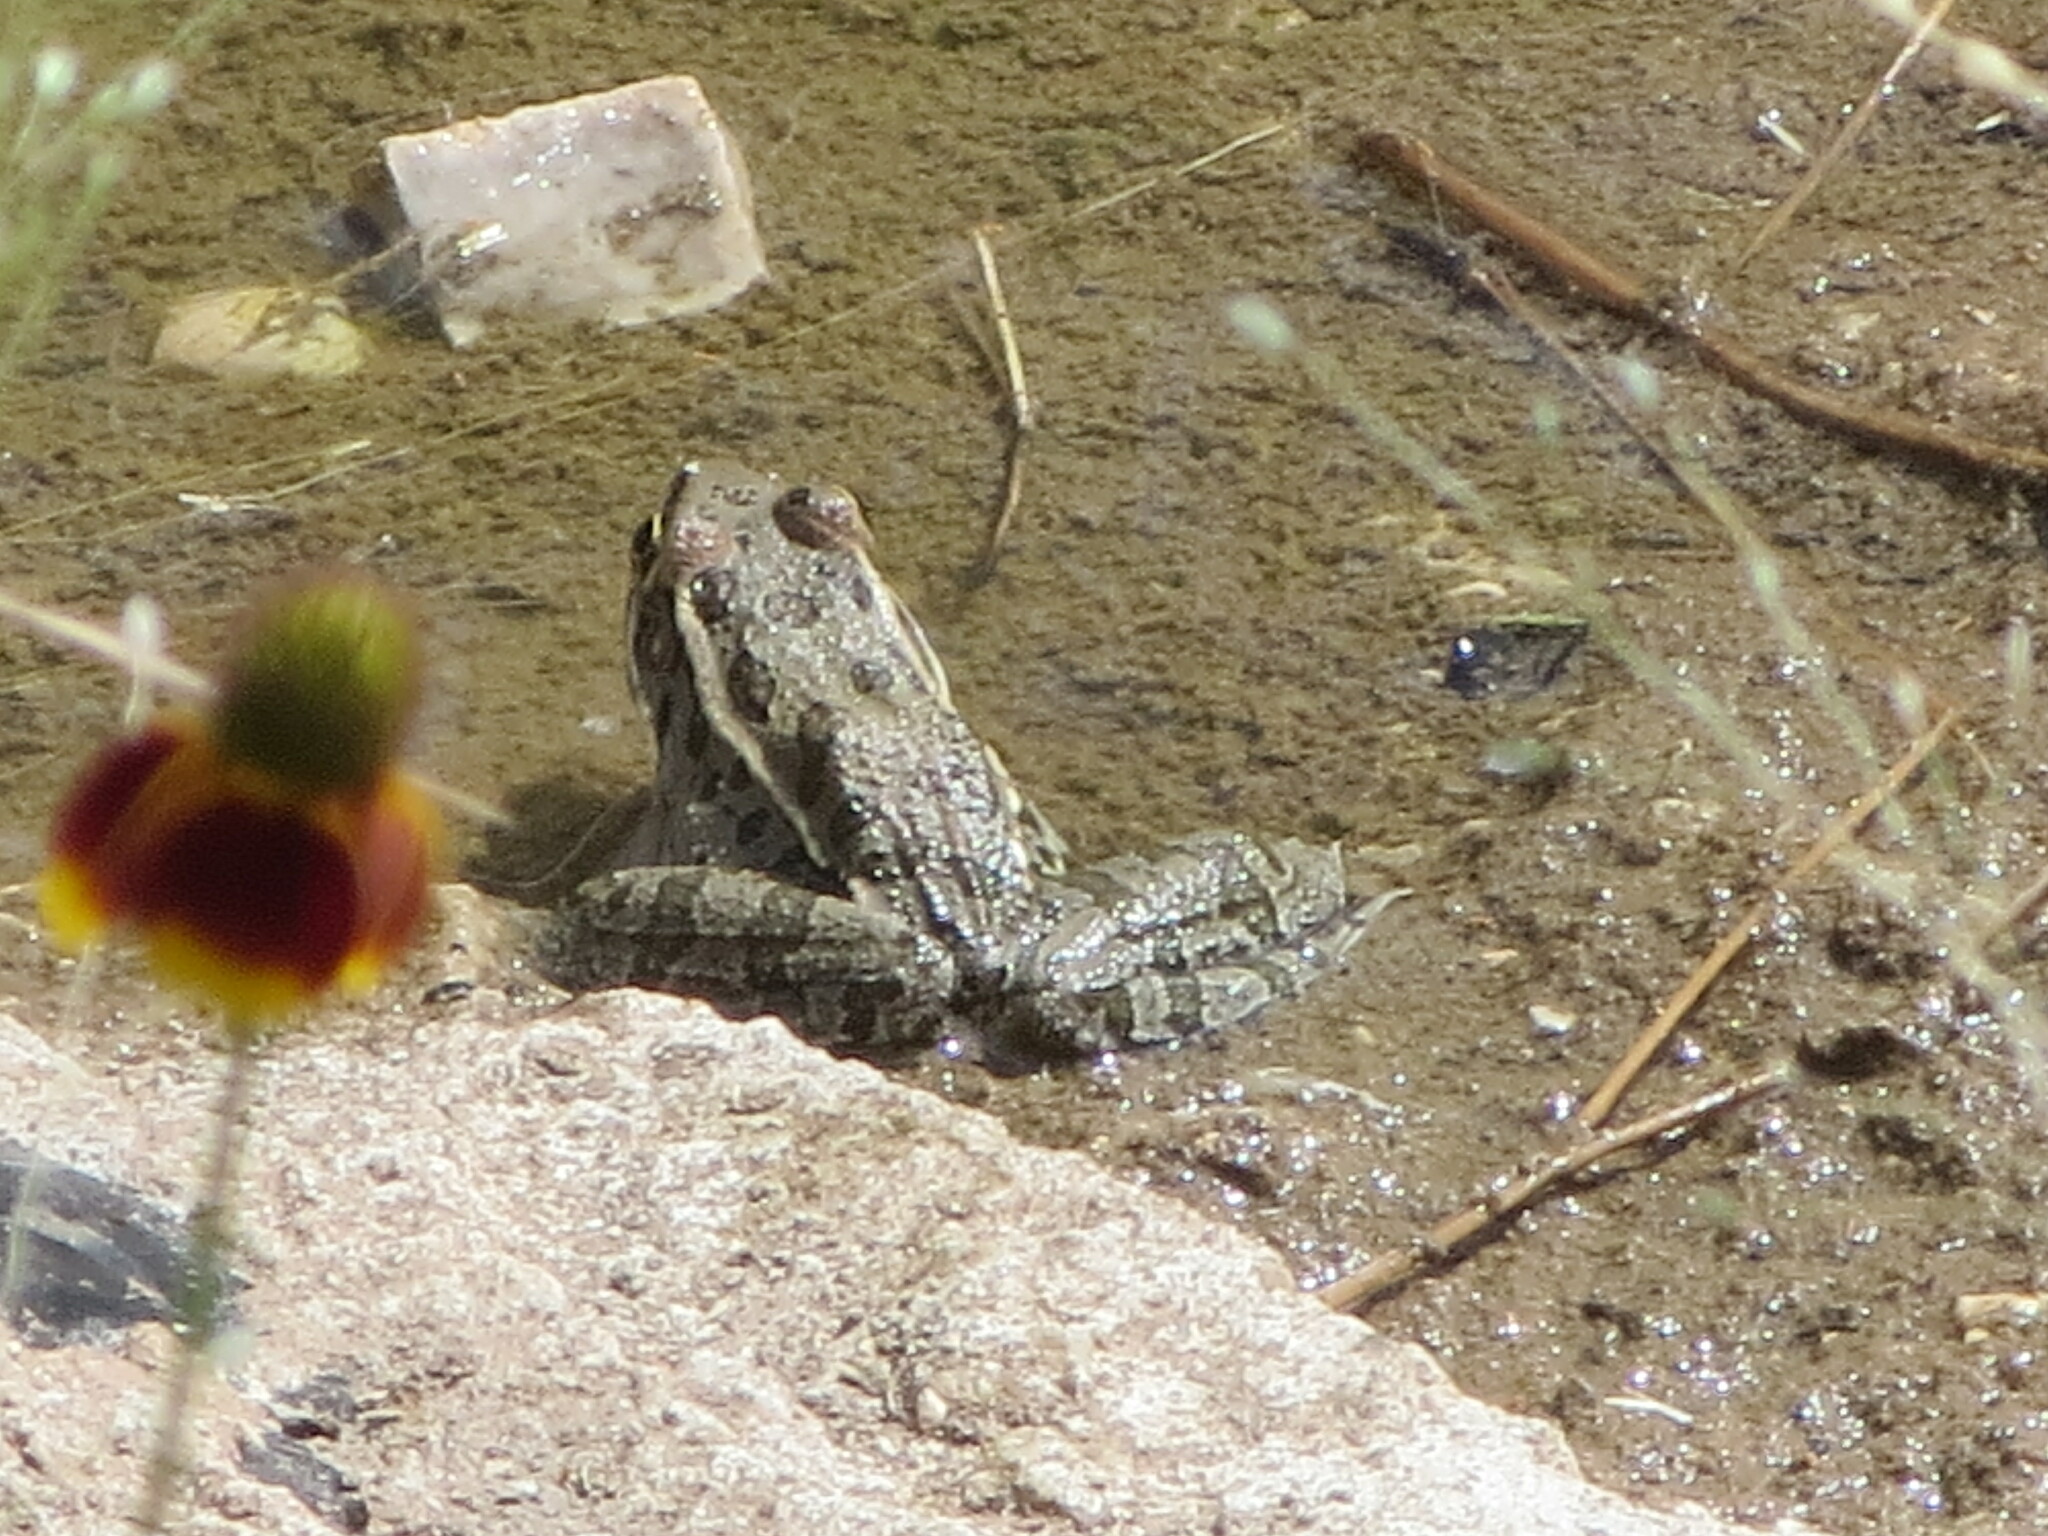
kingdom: Animalia
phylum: Chordata
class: Amphibia
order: Anura
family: Ranidae
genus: Lithobates
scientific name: Lithobates berlandieri
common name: Rio grande leopard frog
